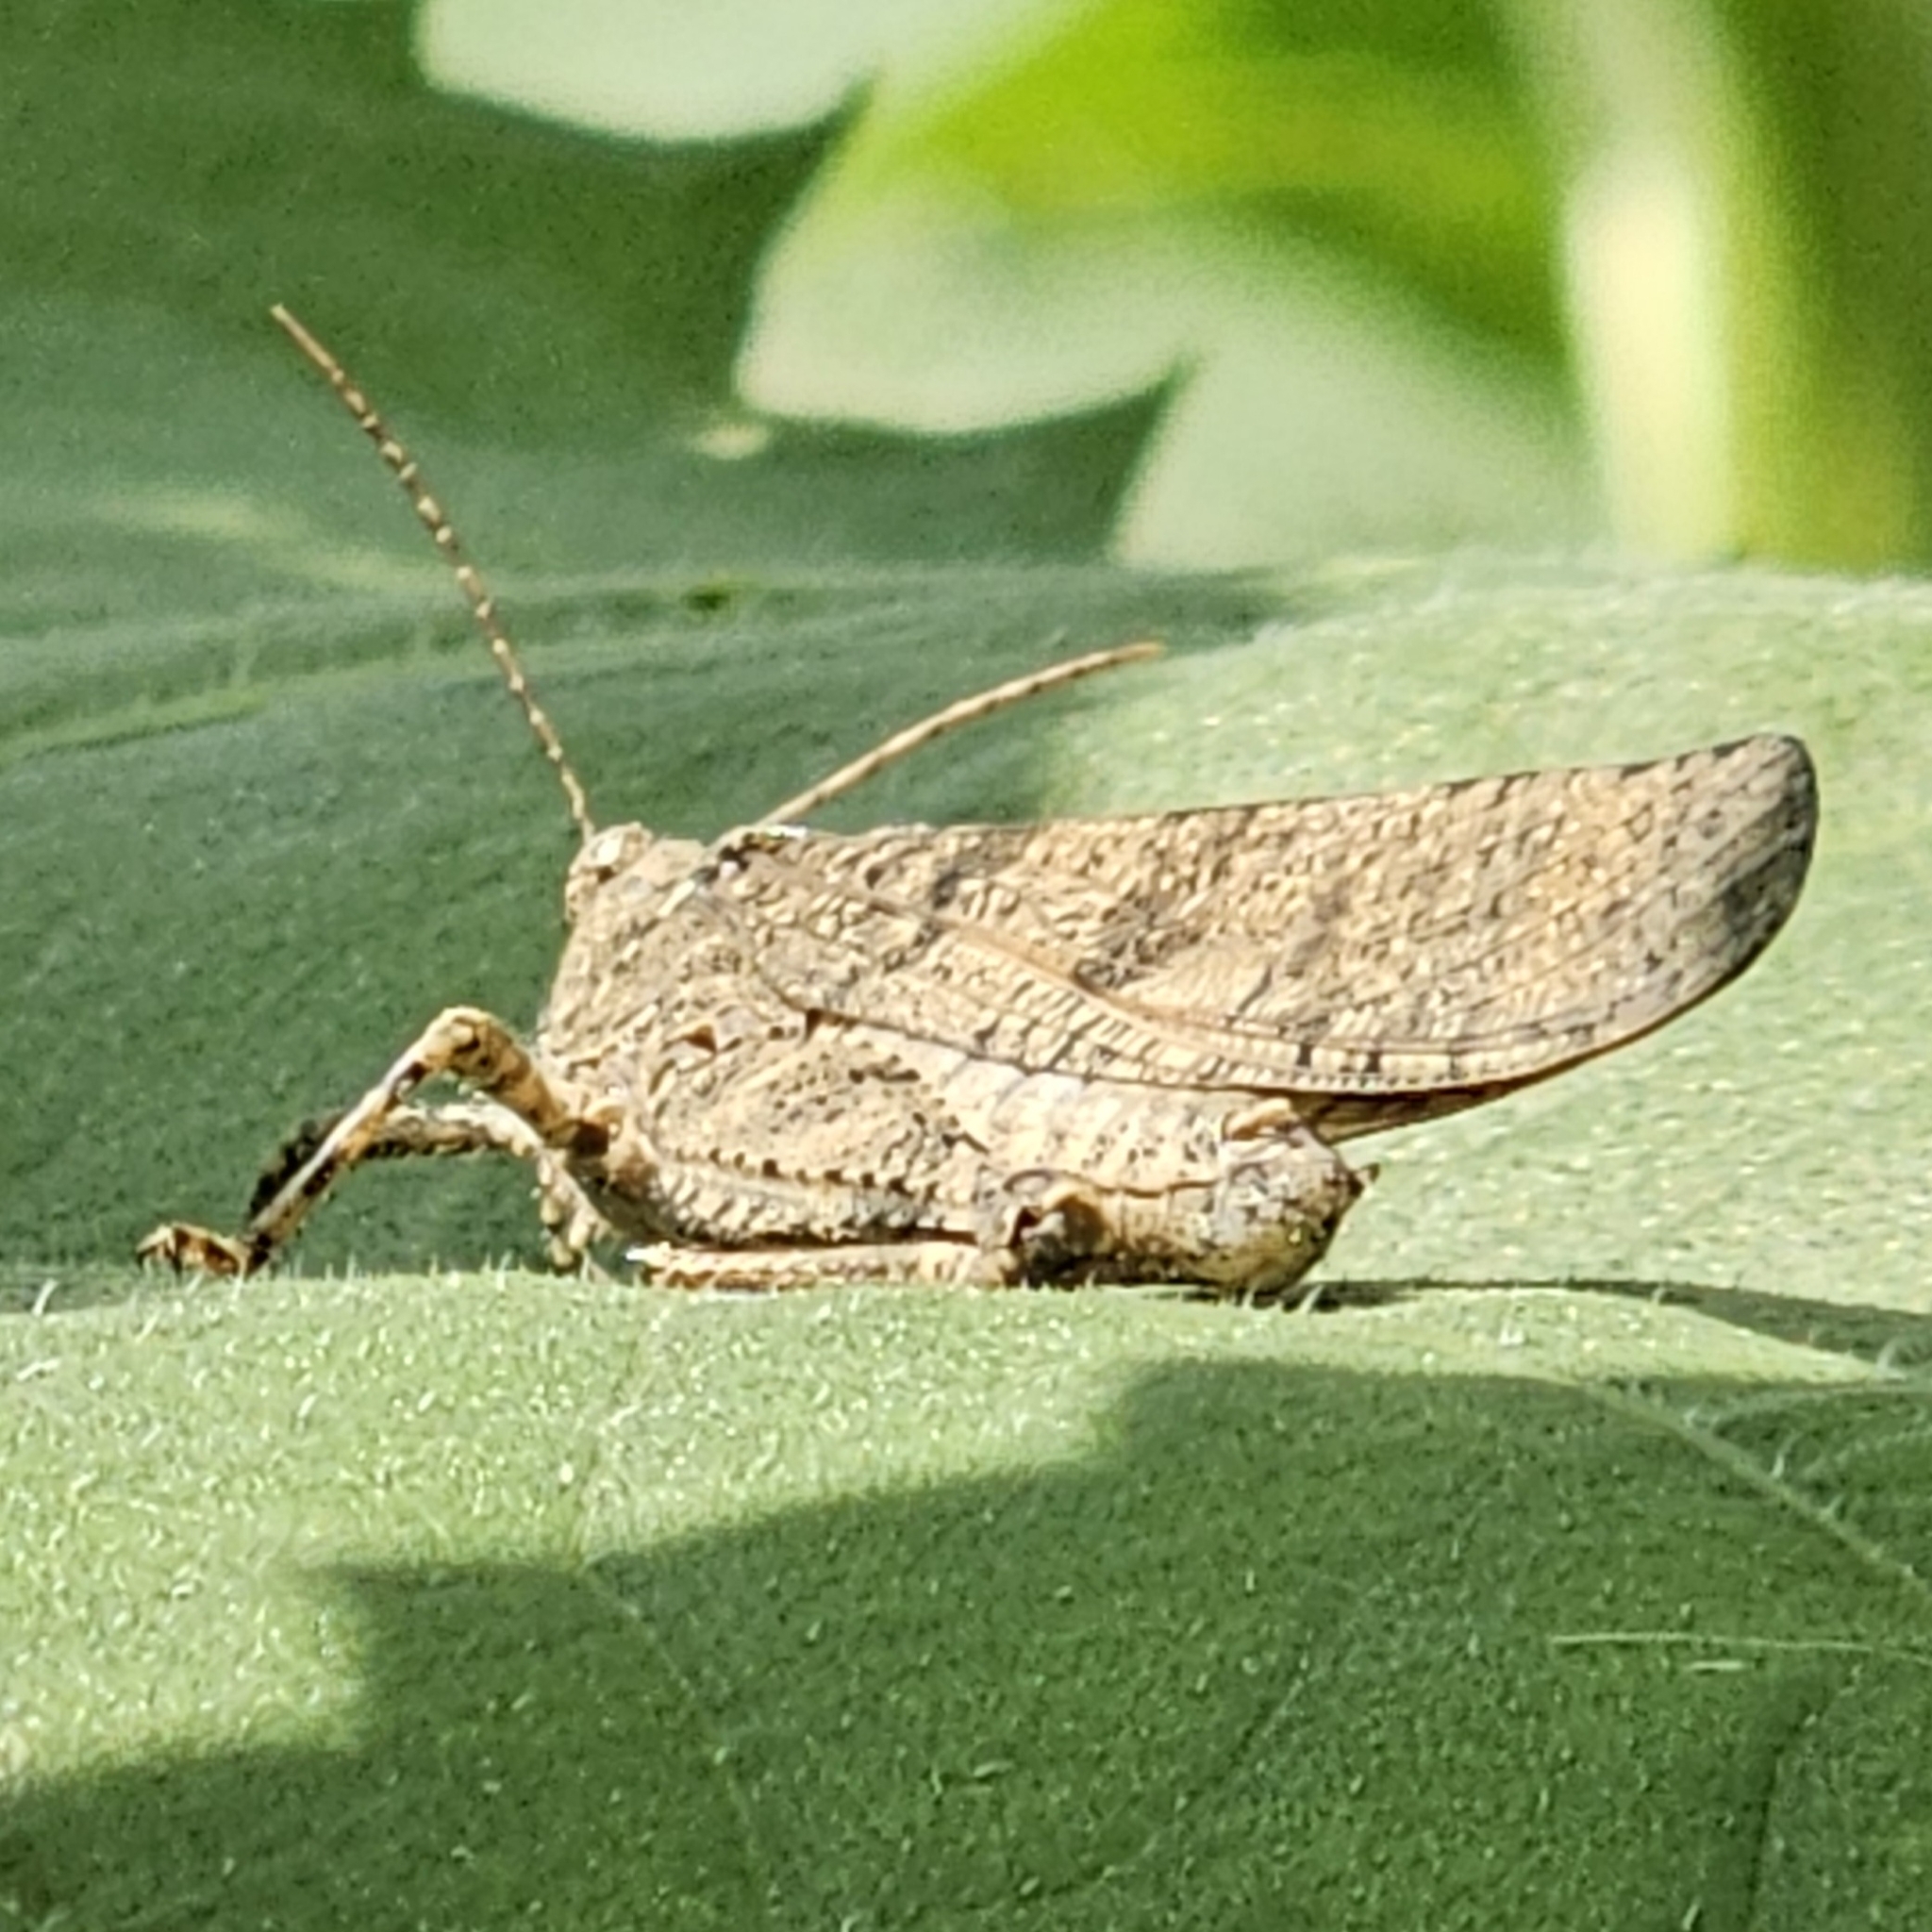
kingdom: Animalia
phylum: Arthropoda
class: Insecta
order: Orthoptera
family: Acrididae
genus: Dissosteira
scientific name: Dissosteira carolina
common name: Carolina grasshopper
